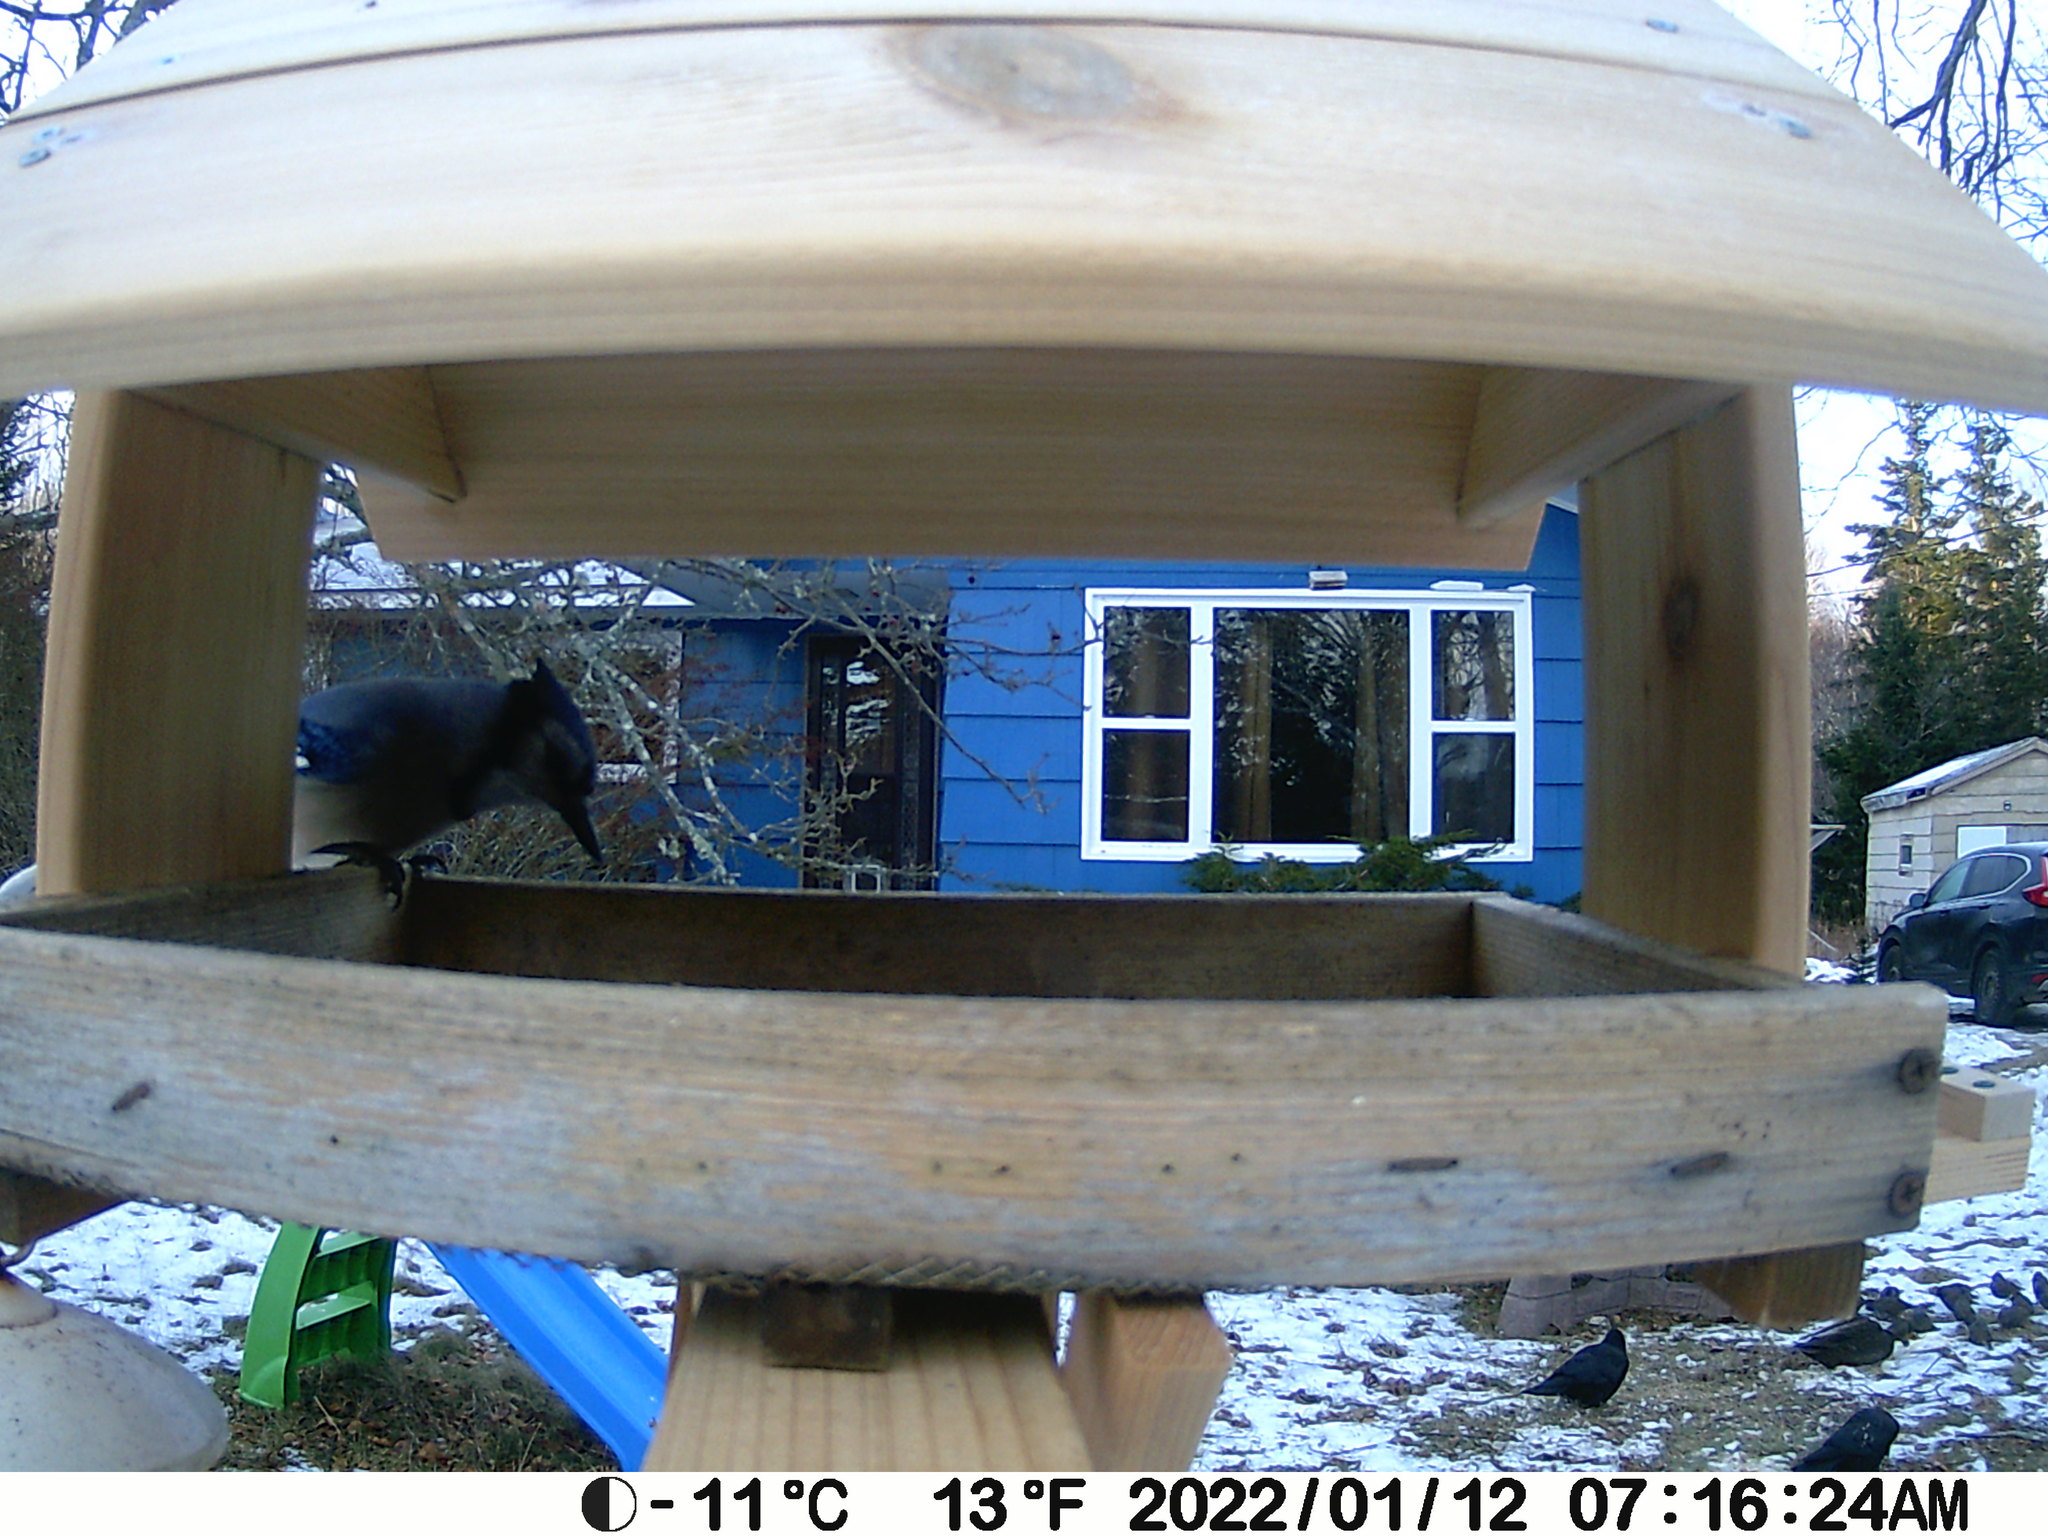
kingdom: Animalia
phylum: Chordata
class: Aves
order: Passeriformes
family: Corvidae
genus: Cyanocitta
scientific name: Cyanocitta cristata
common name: Blue jay
